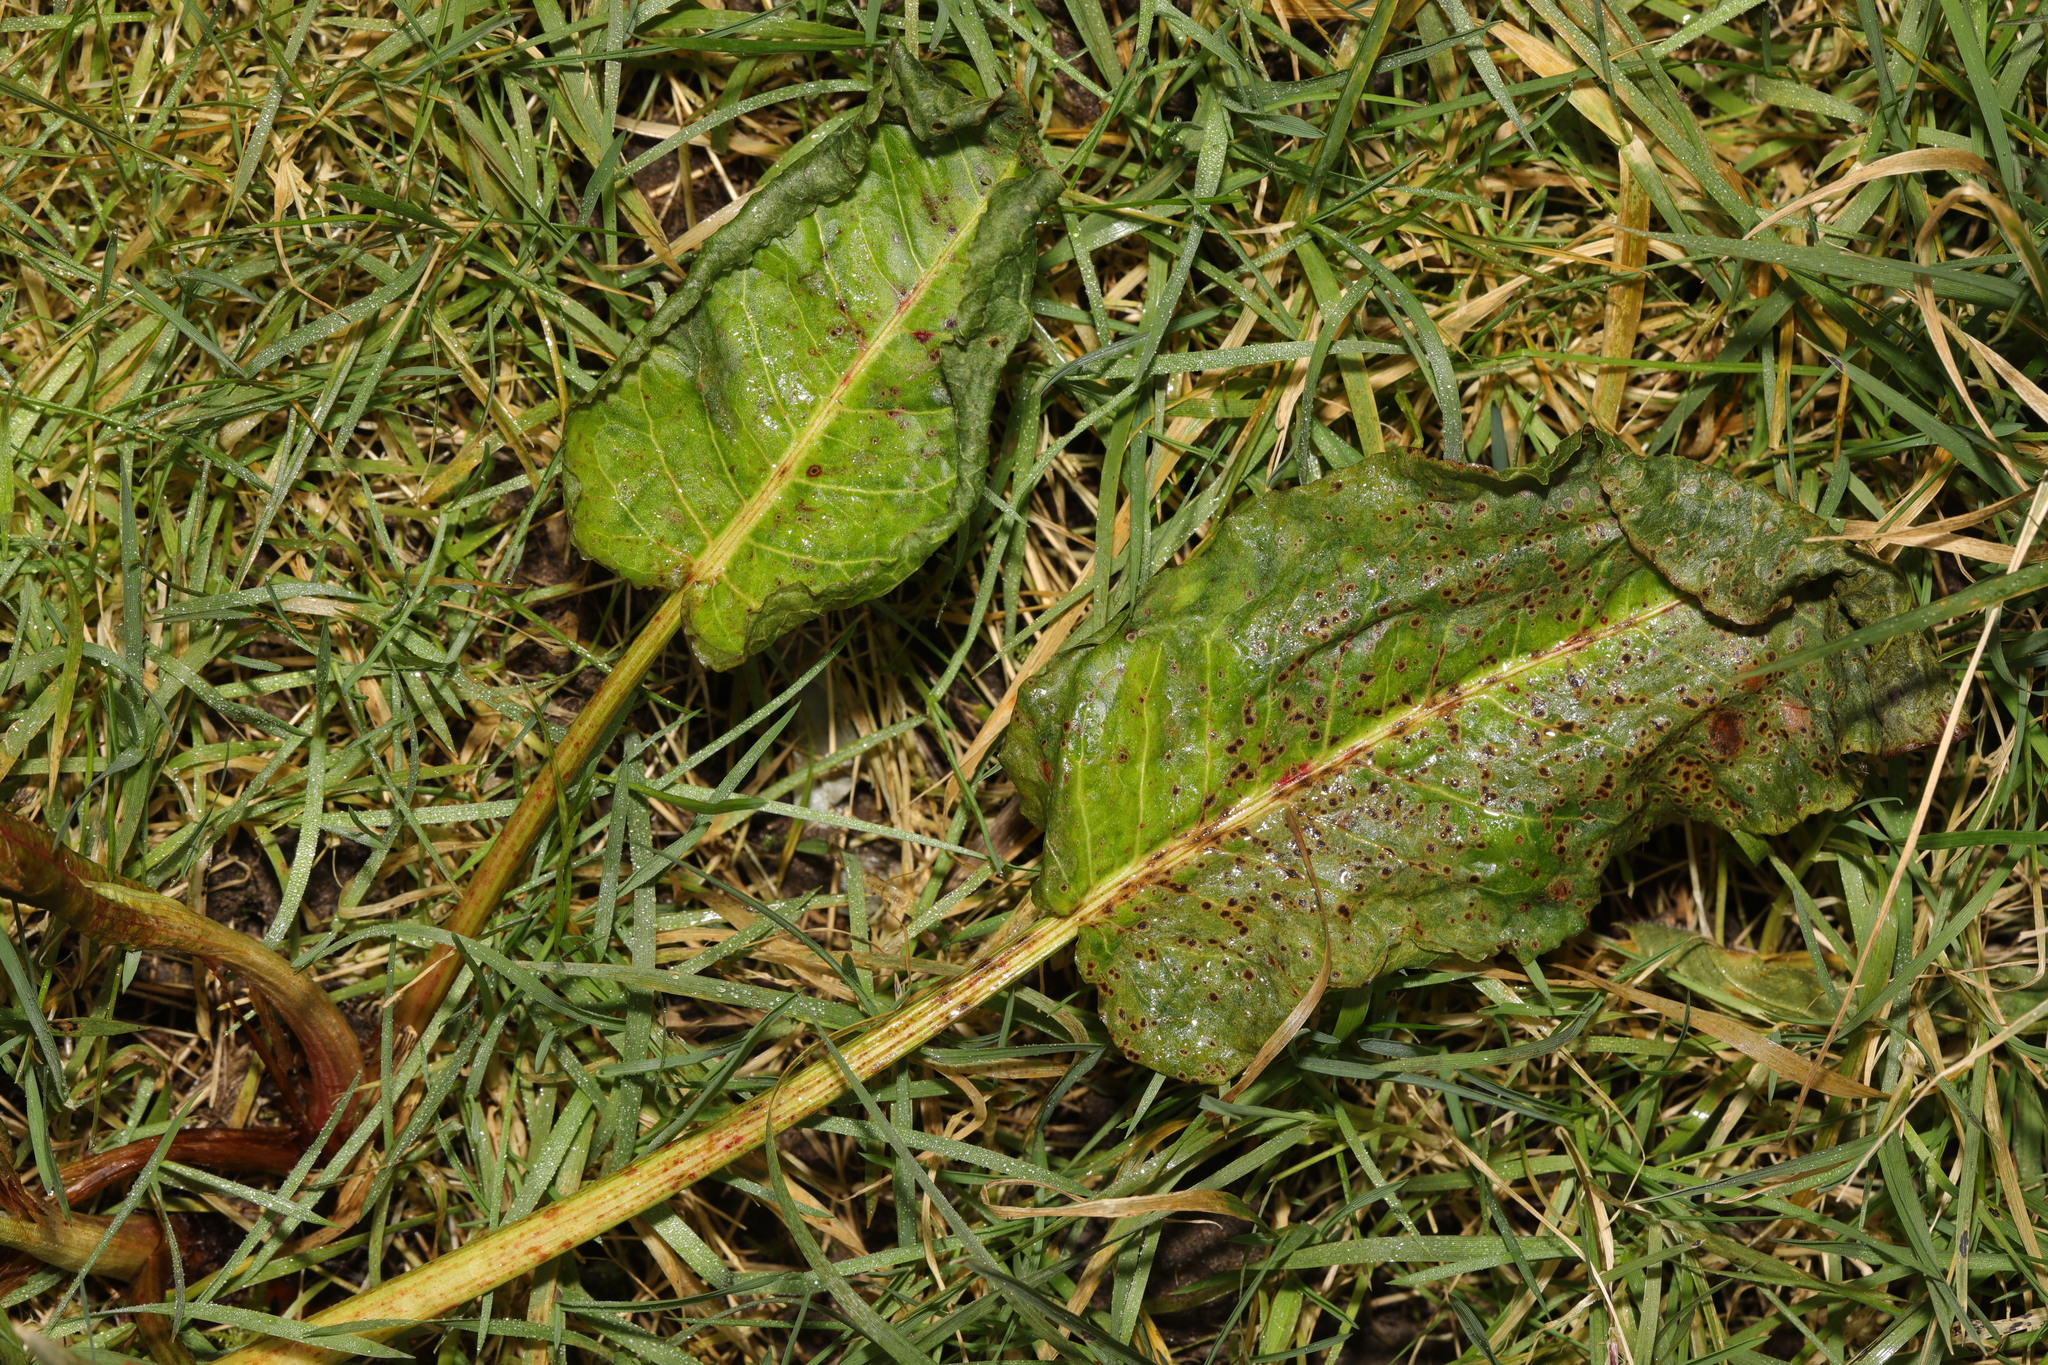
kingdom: Plantae
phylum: Tracheophyta
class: Magnoliopsida
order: Caryophyllales
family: Polygonaceae
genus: Rumex
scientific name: Rumex obtusifolius
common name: Bitter dock
